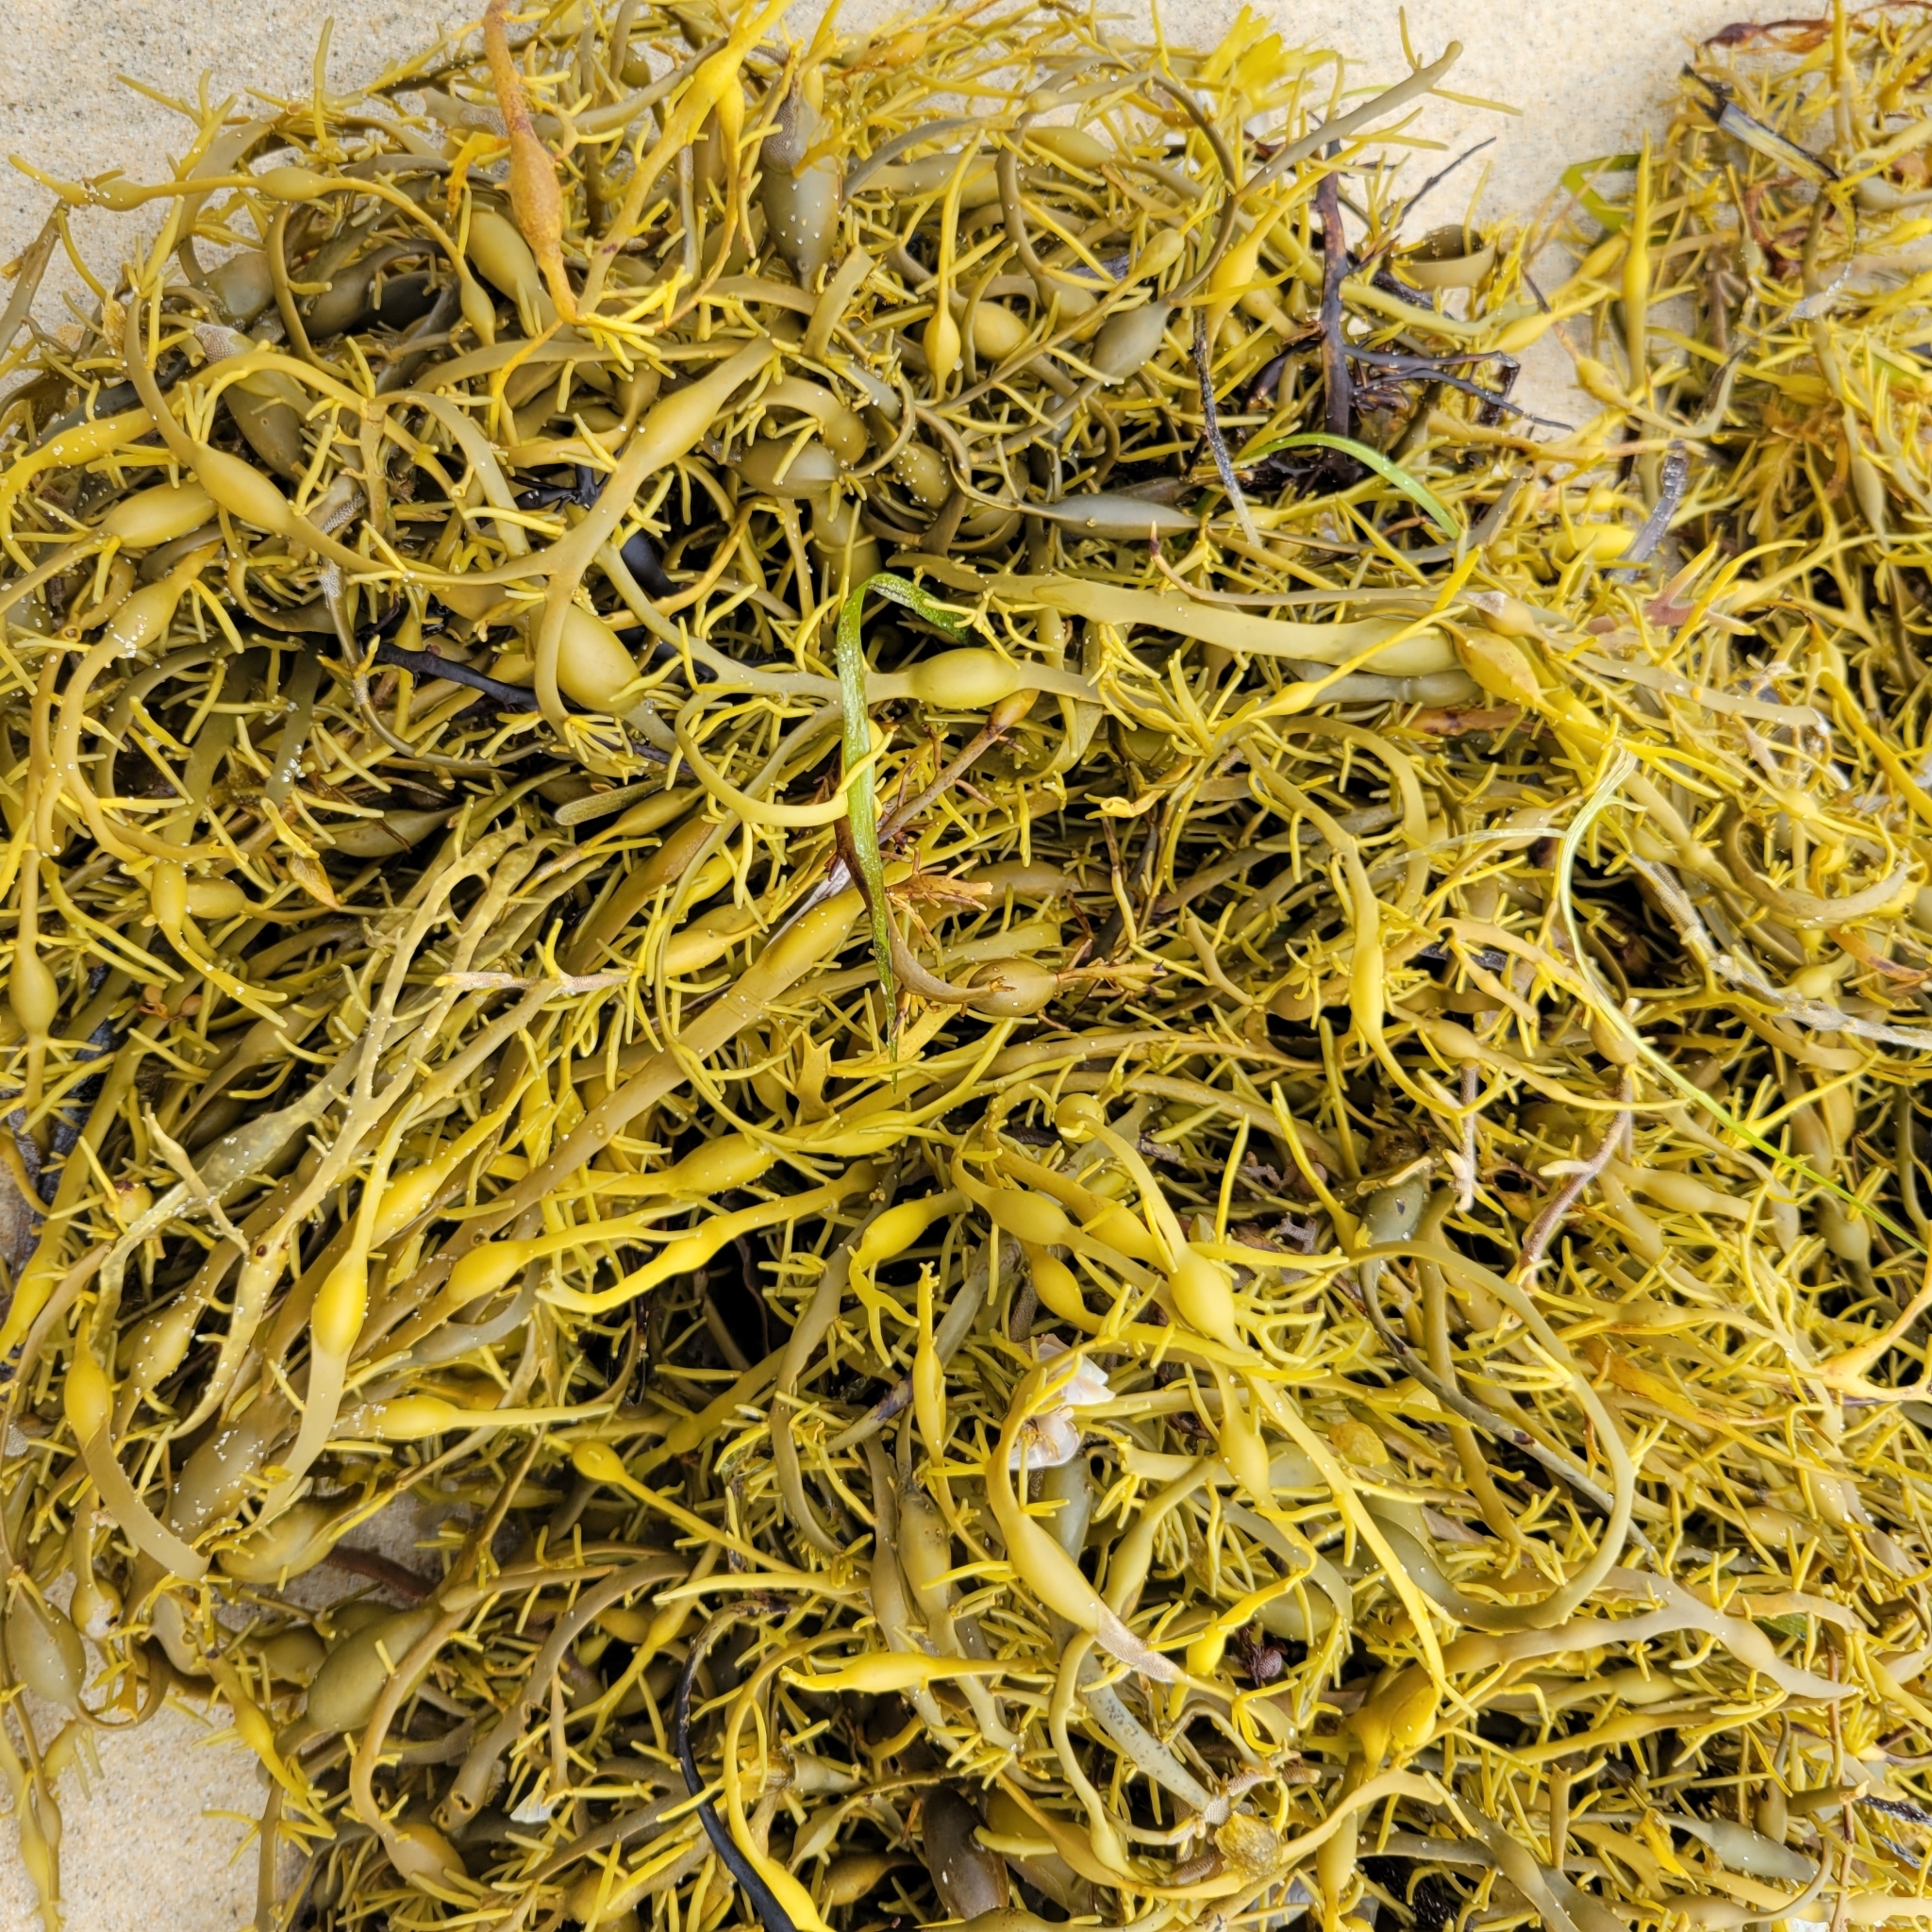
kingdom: Chromista
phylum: Ochrophyta
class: Phaeophyceae
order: Fucales
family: Fucaceae
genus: Ascophyllum
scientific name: Ascophyllum nodosum
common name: Knotted wrack
